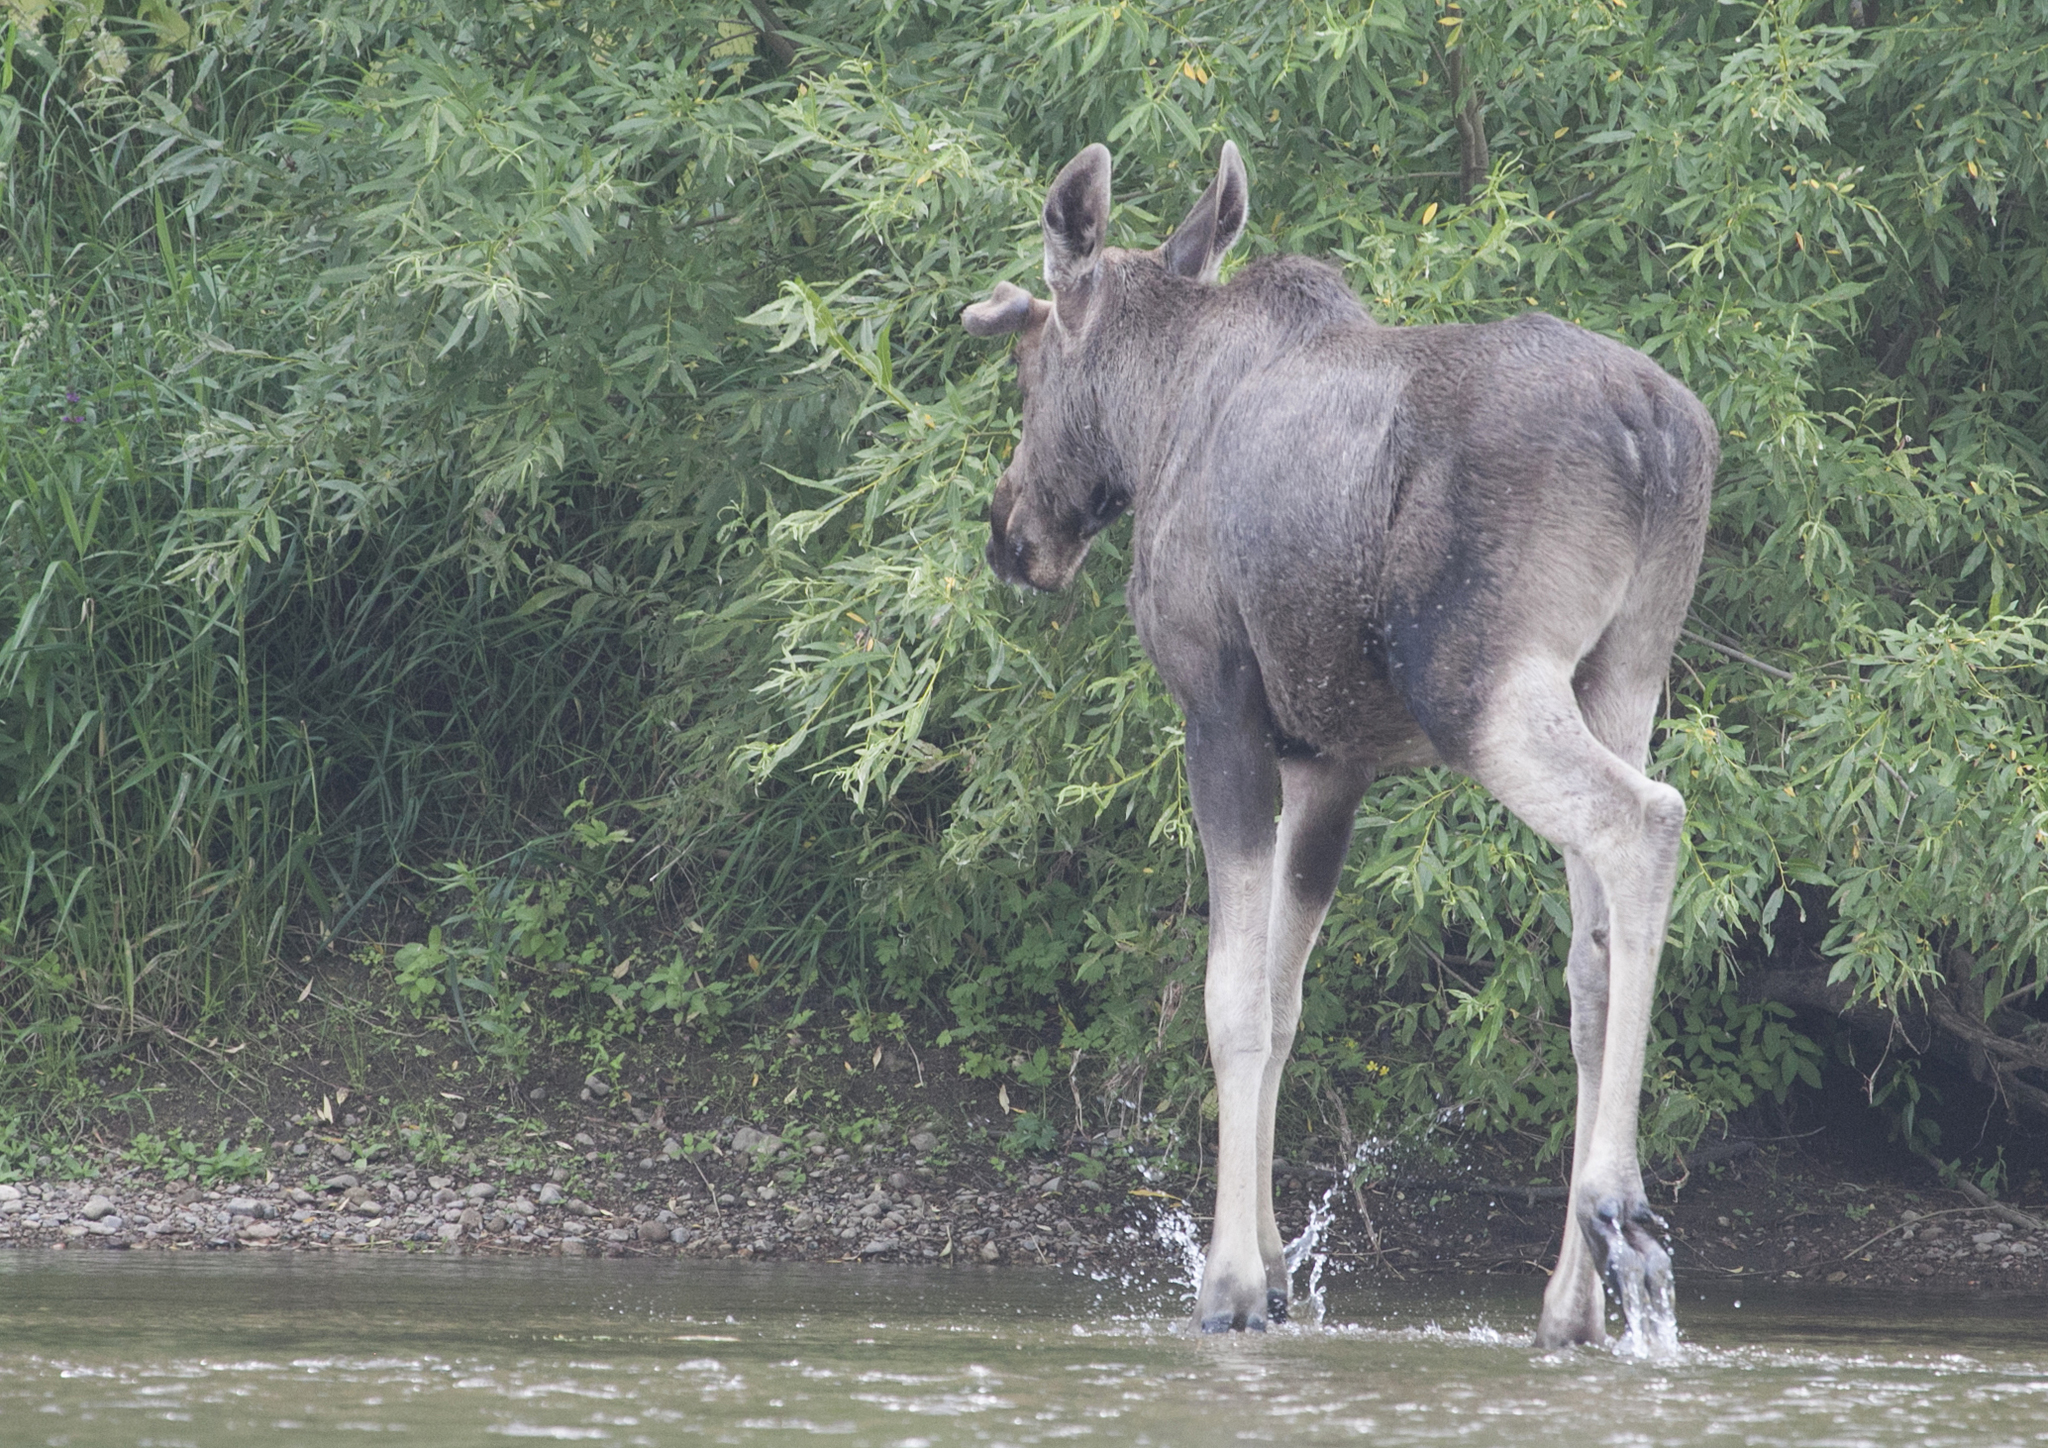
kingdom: Animalia
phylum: Chordata
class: Mammalia
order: Artiodactyla
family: Cervidae
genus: Alces
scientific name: Alces alces
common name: Moose
